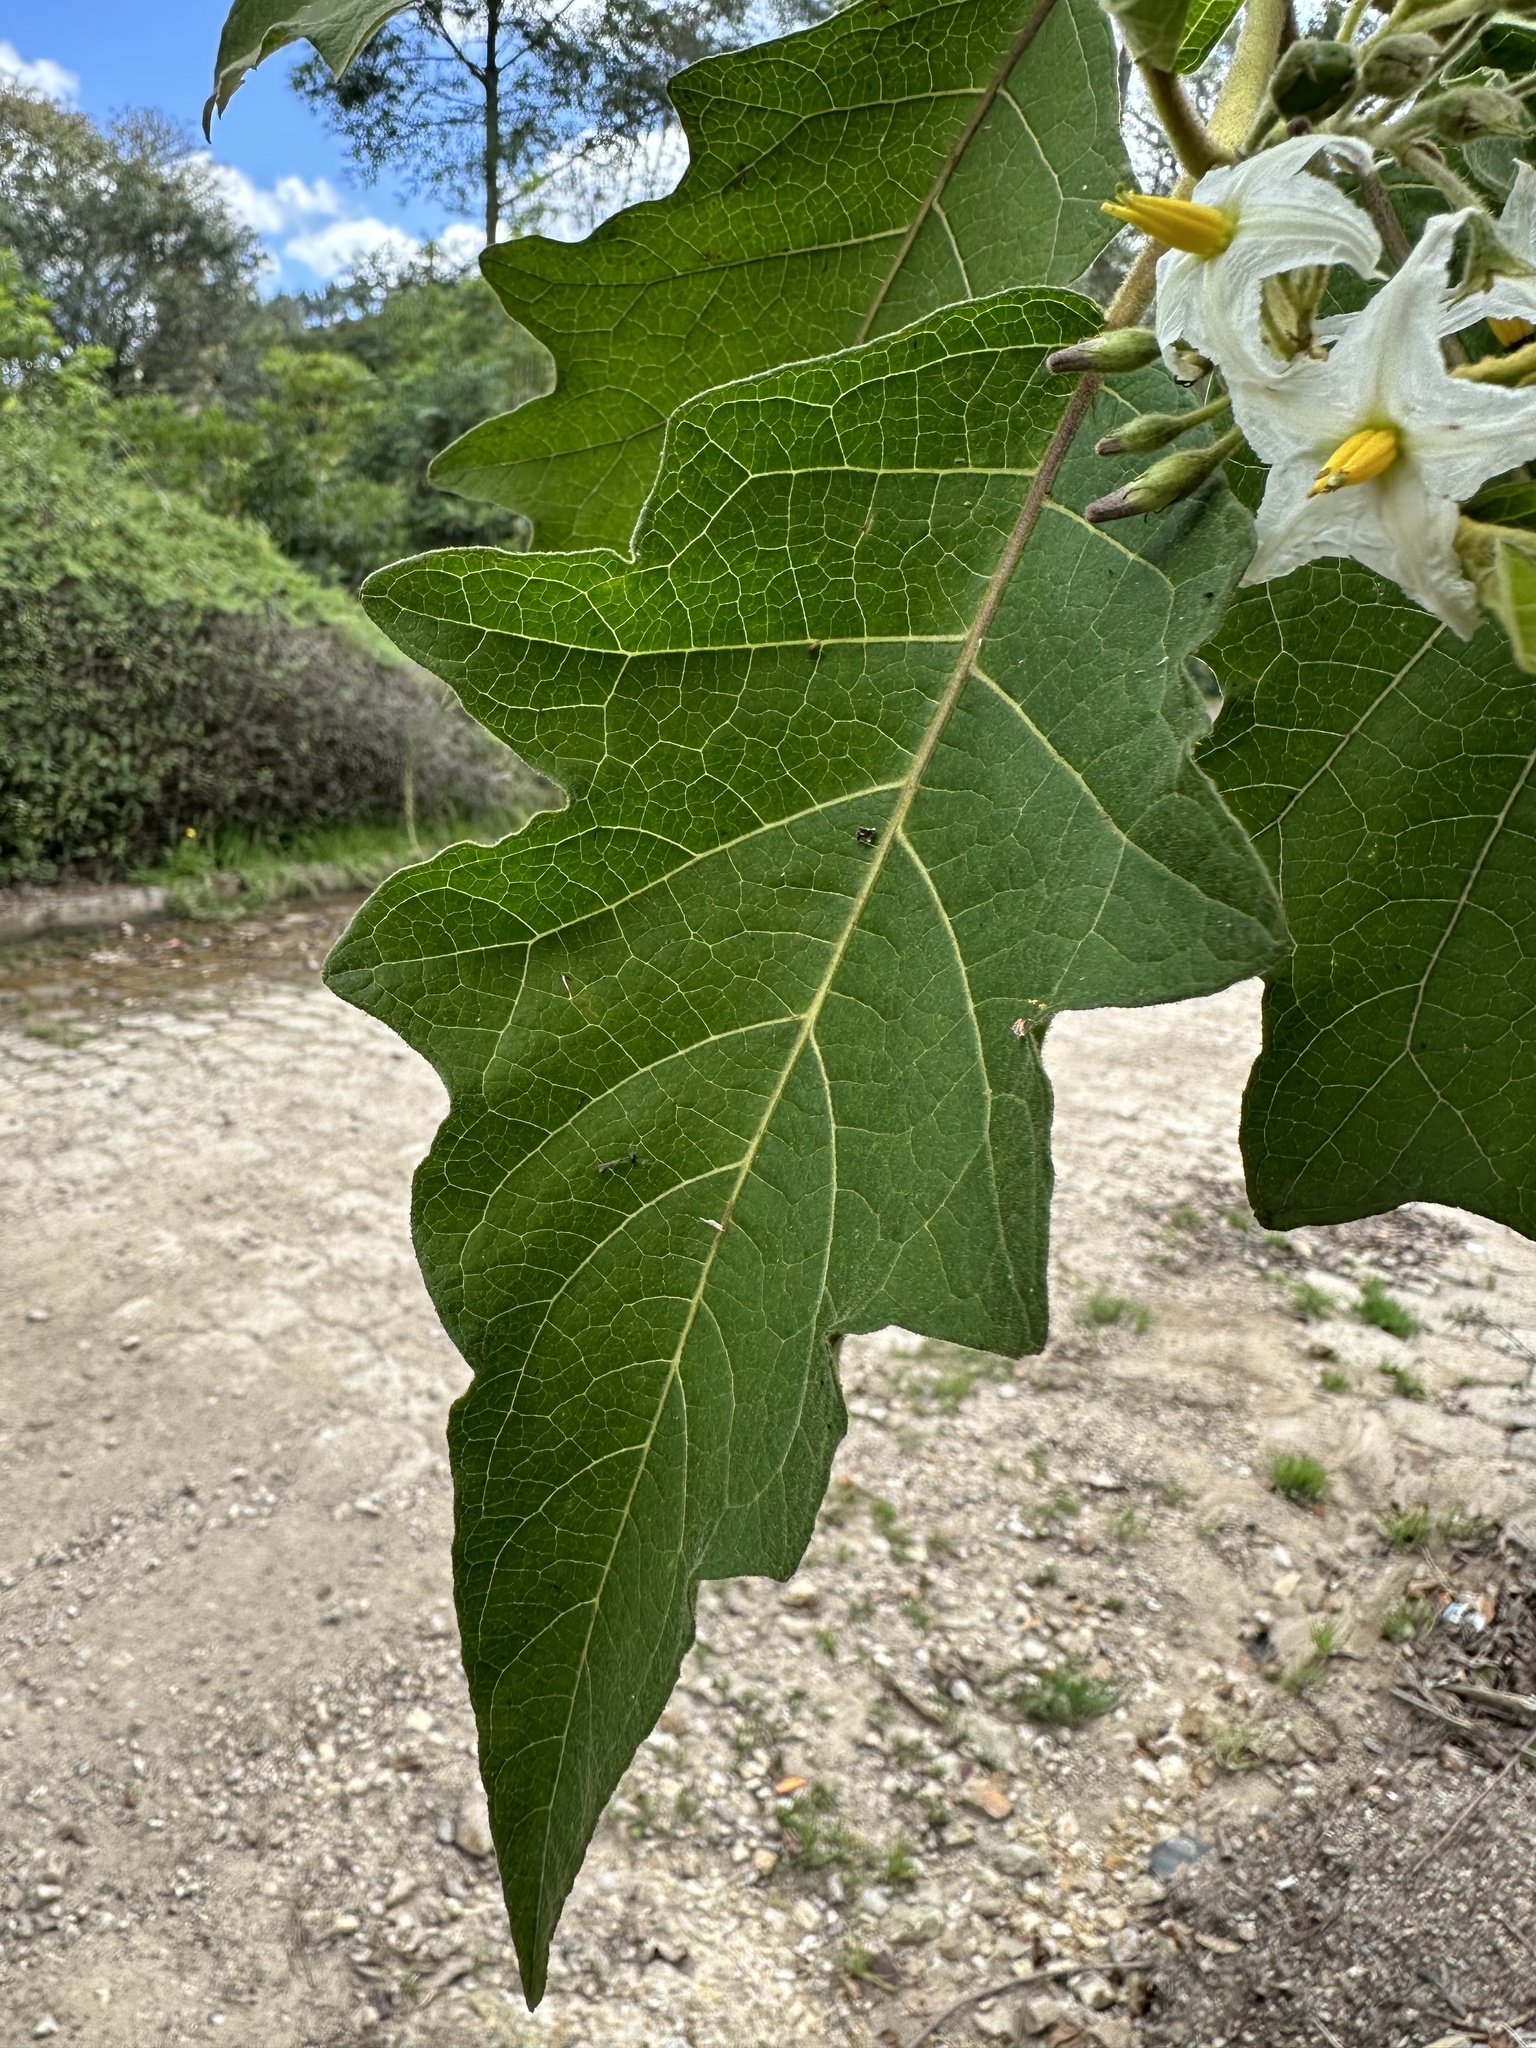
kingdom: Plantae
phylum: Tracheophyta
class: Magnoliopsida
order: Solanales
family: Solanaceae
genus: Solanum
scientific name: Solanum stellatiglandulosum
